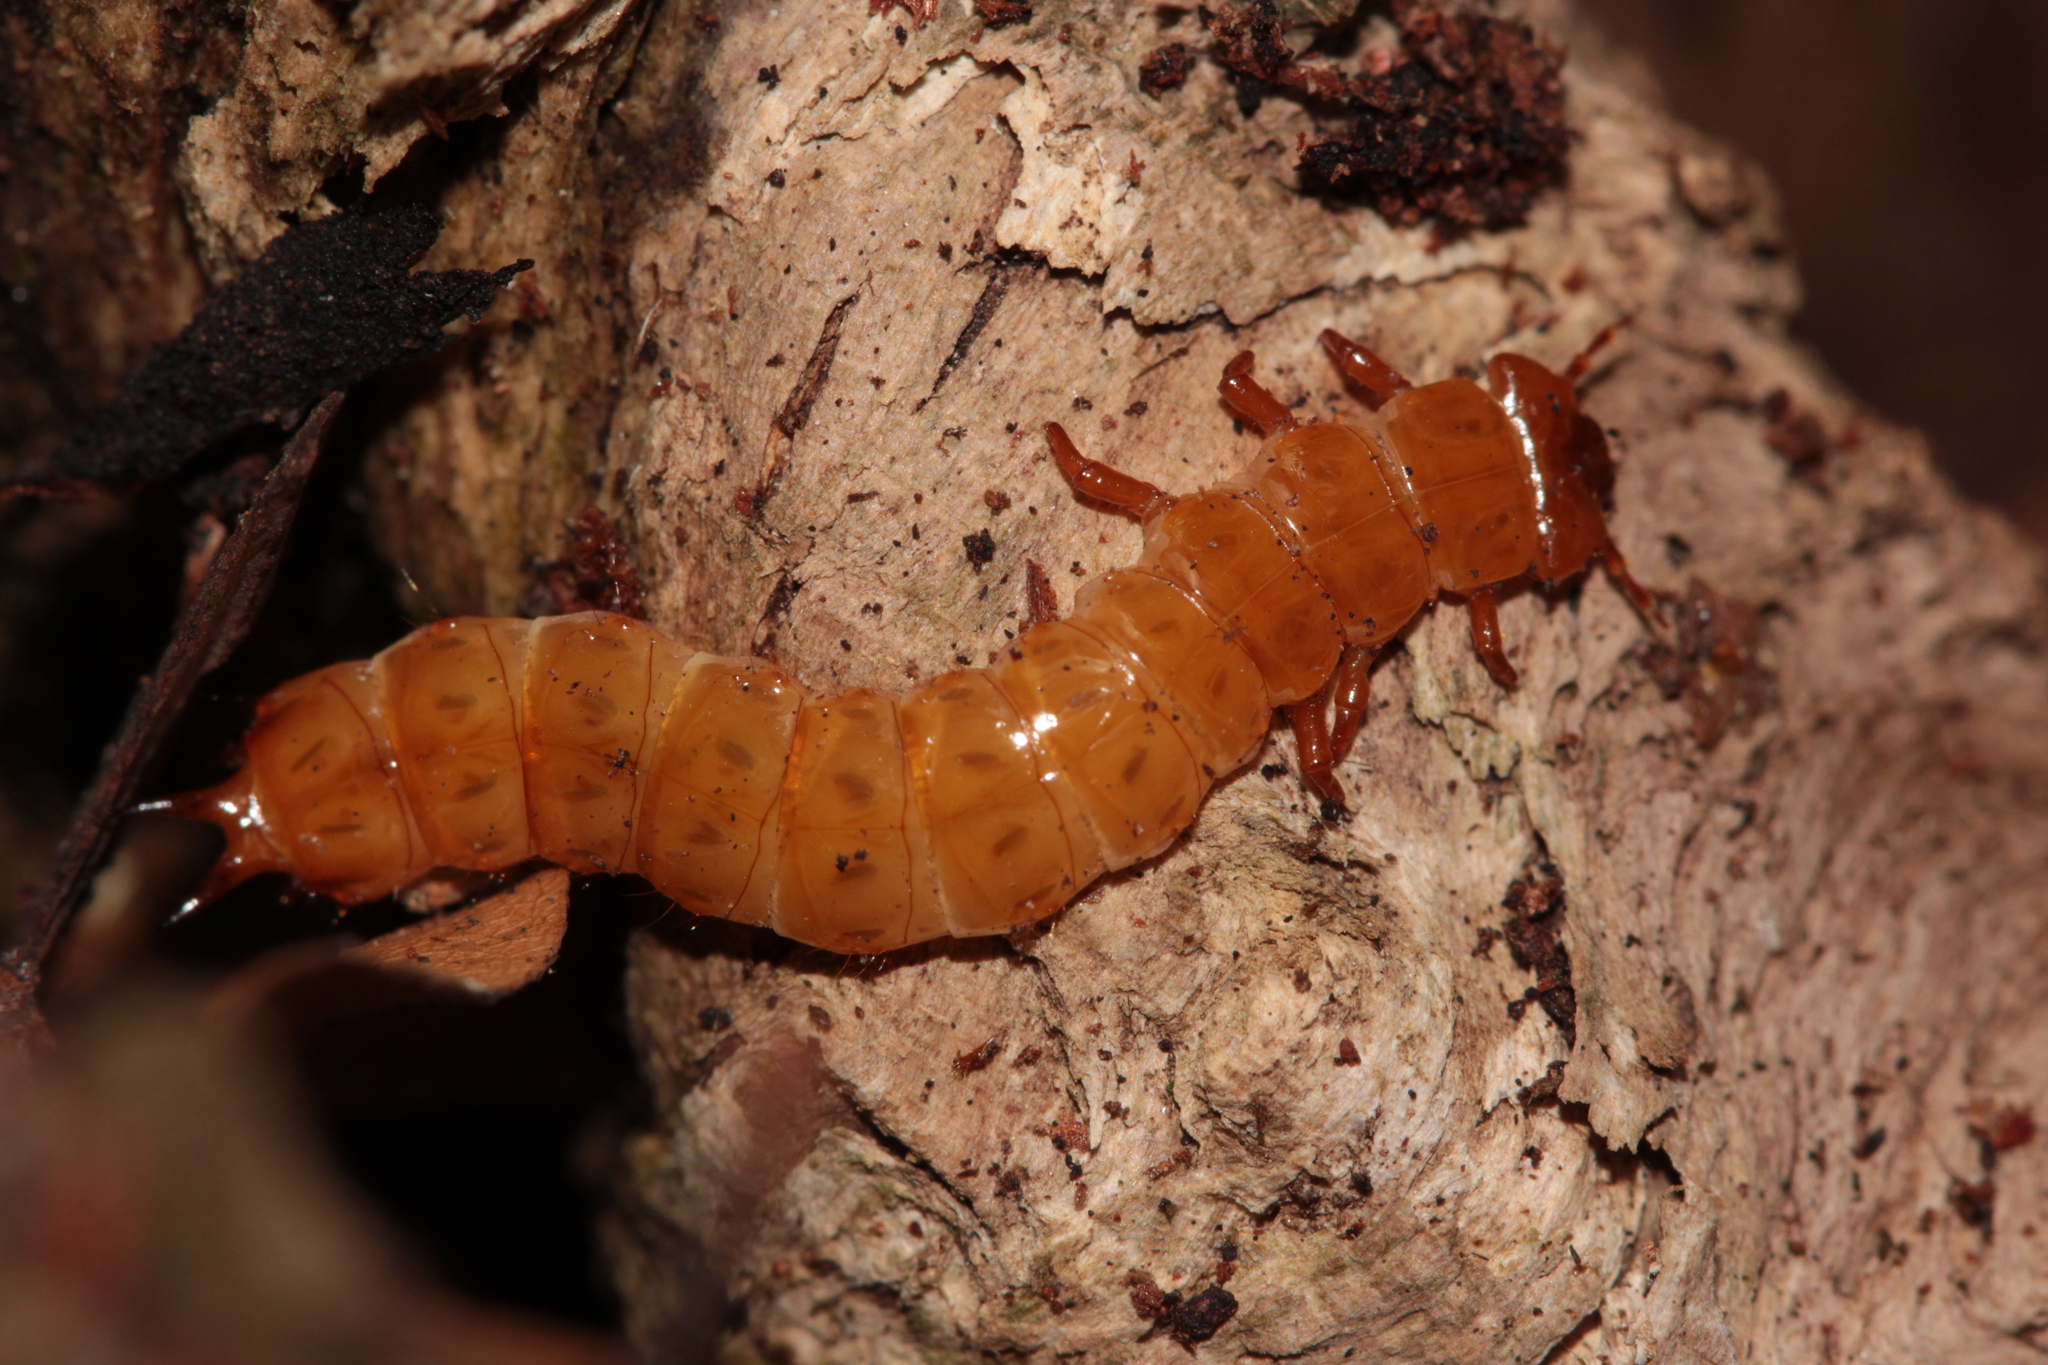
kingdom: Animalia
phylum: Arthropoda
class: Insecta
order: Coleoptera
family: Cucujidae
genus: Cucujus
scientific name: Cucujus cinnaberinus
